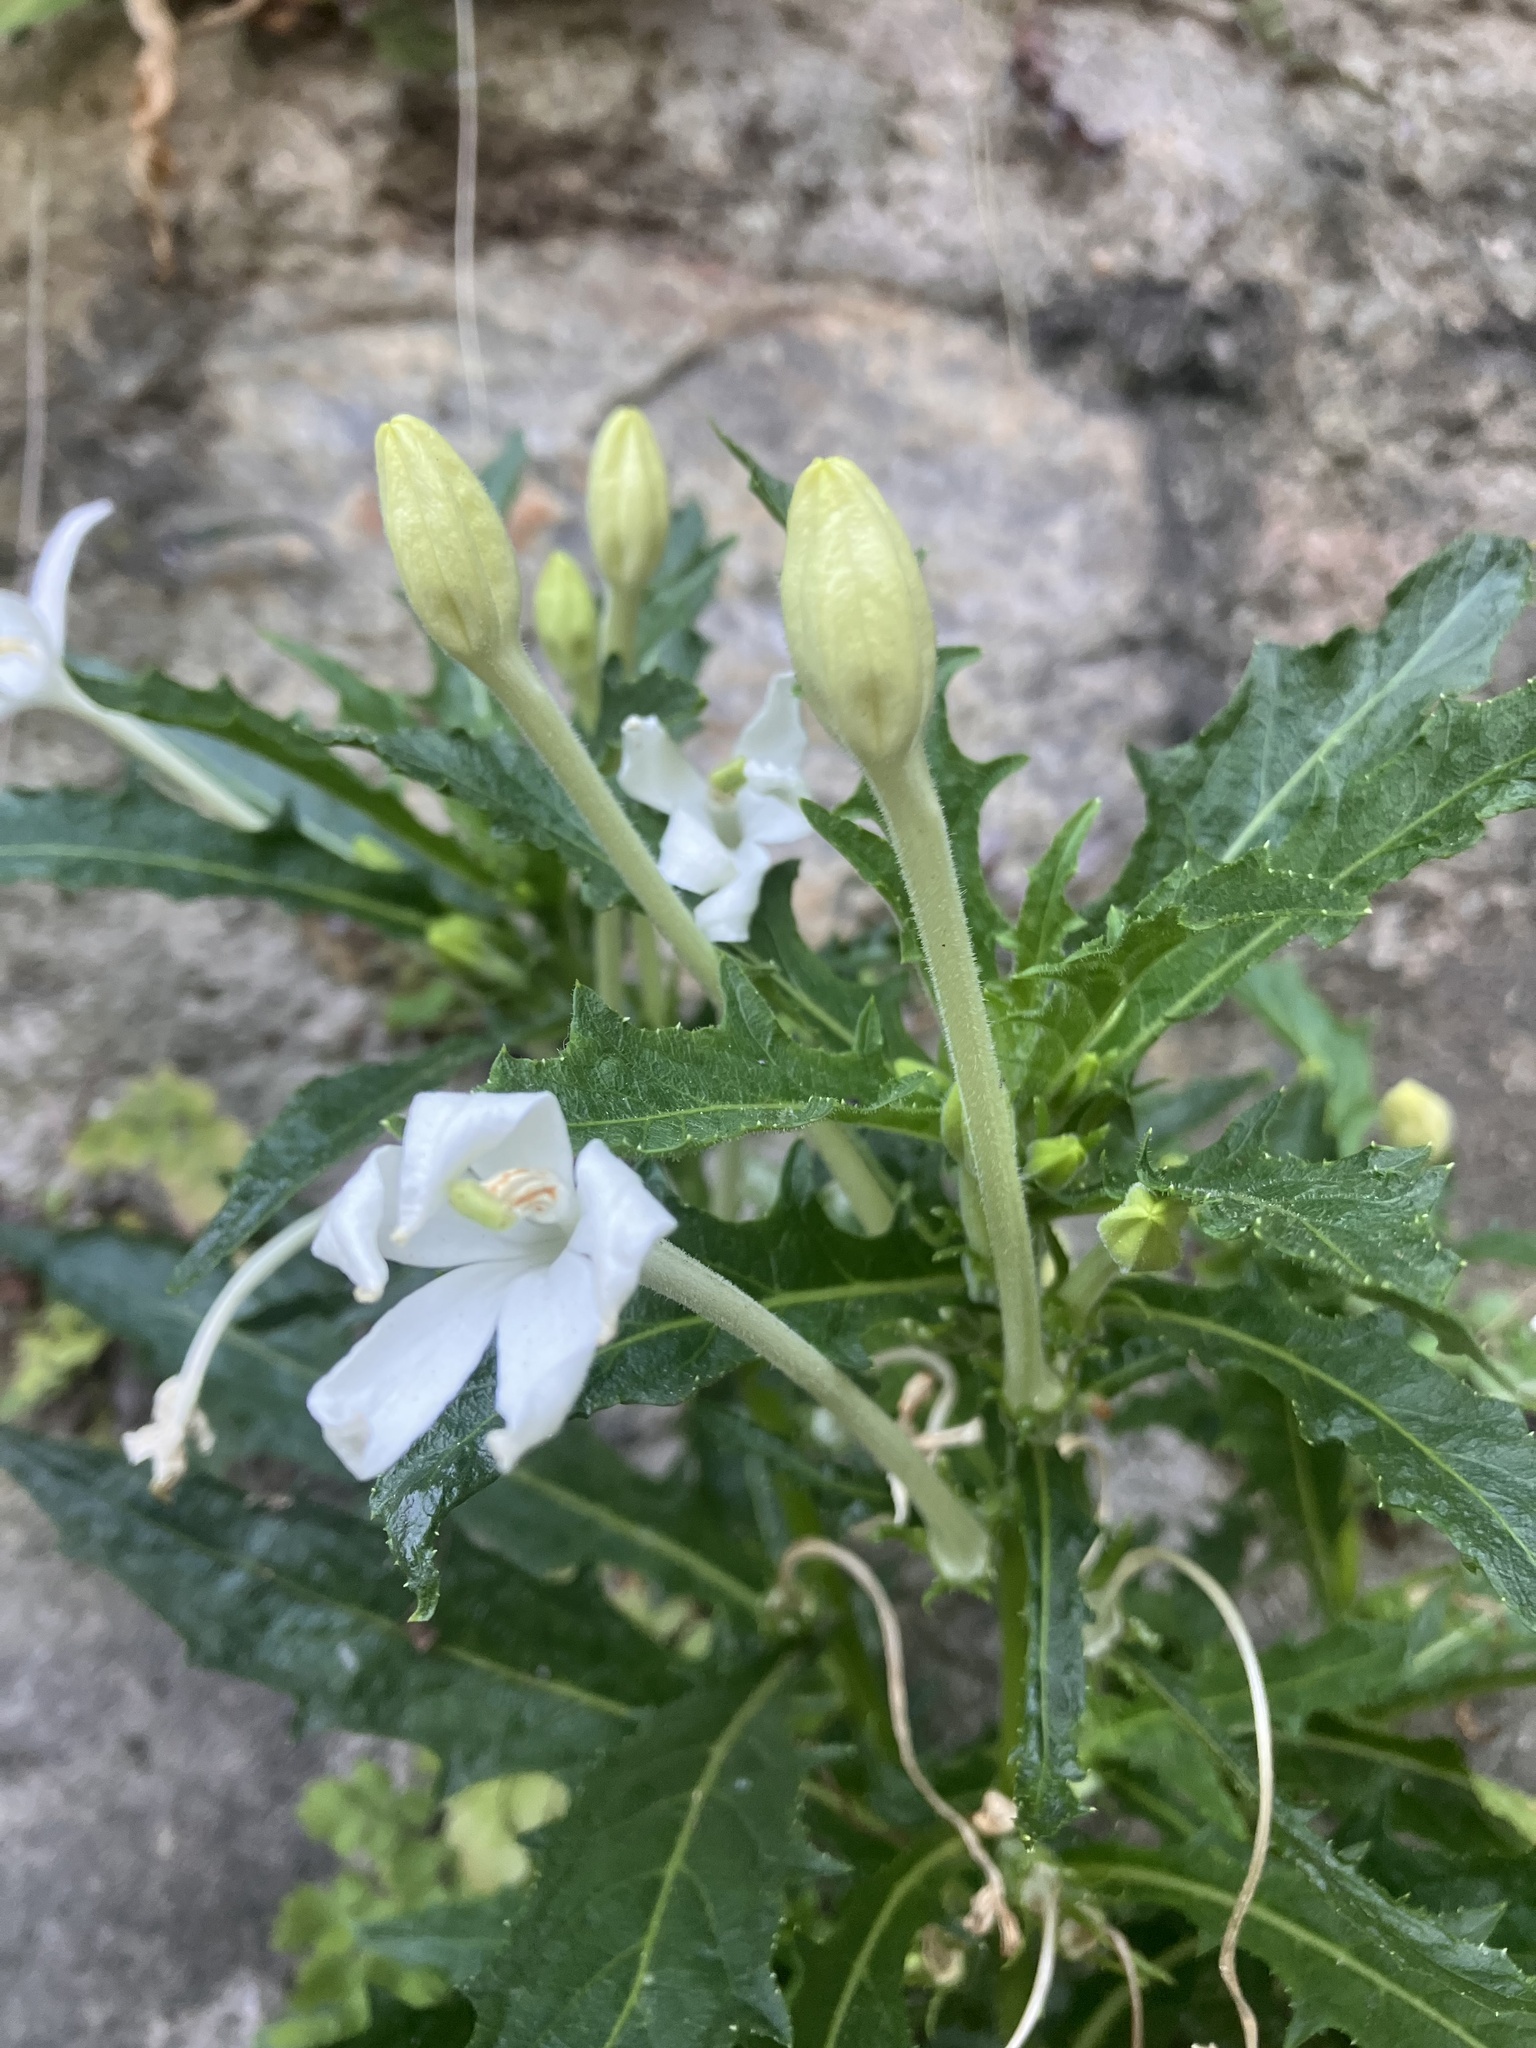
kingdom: Plantae
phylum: Tracheophyta
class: Magnoliopsida
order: Asterales
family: Campanulaceae
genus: Hippobroma
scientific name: Hippobroma longiflora
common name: Madamfate
